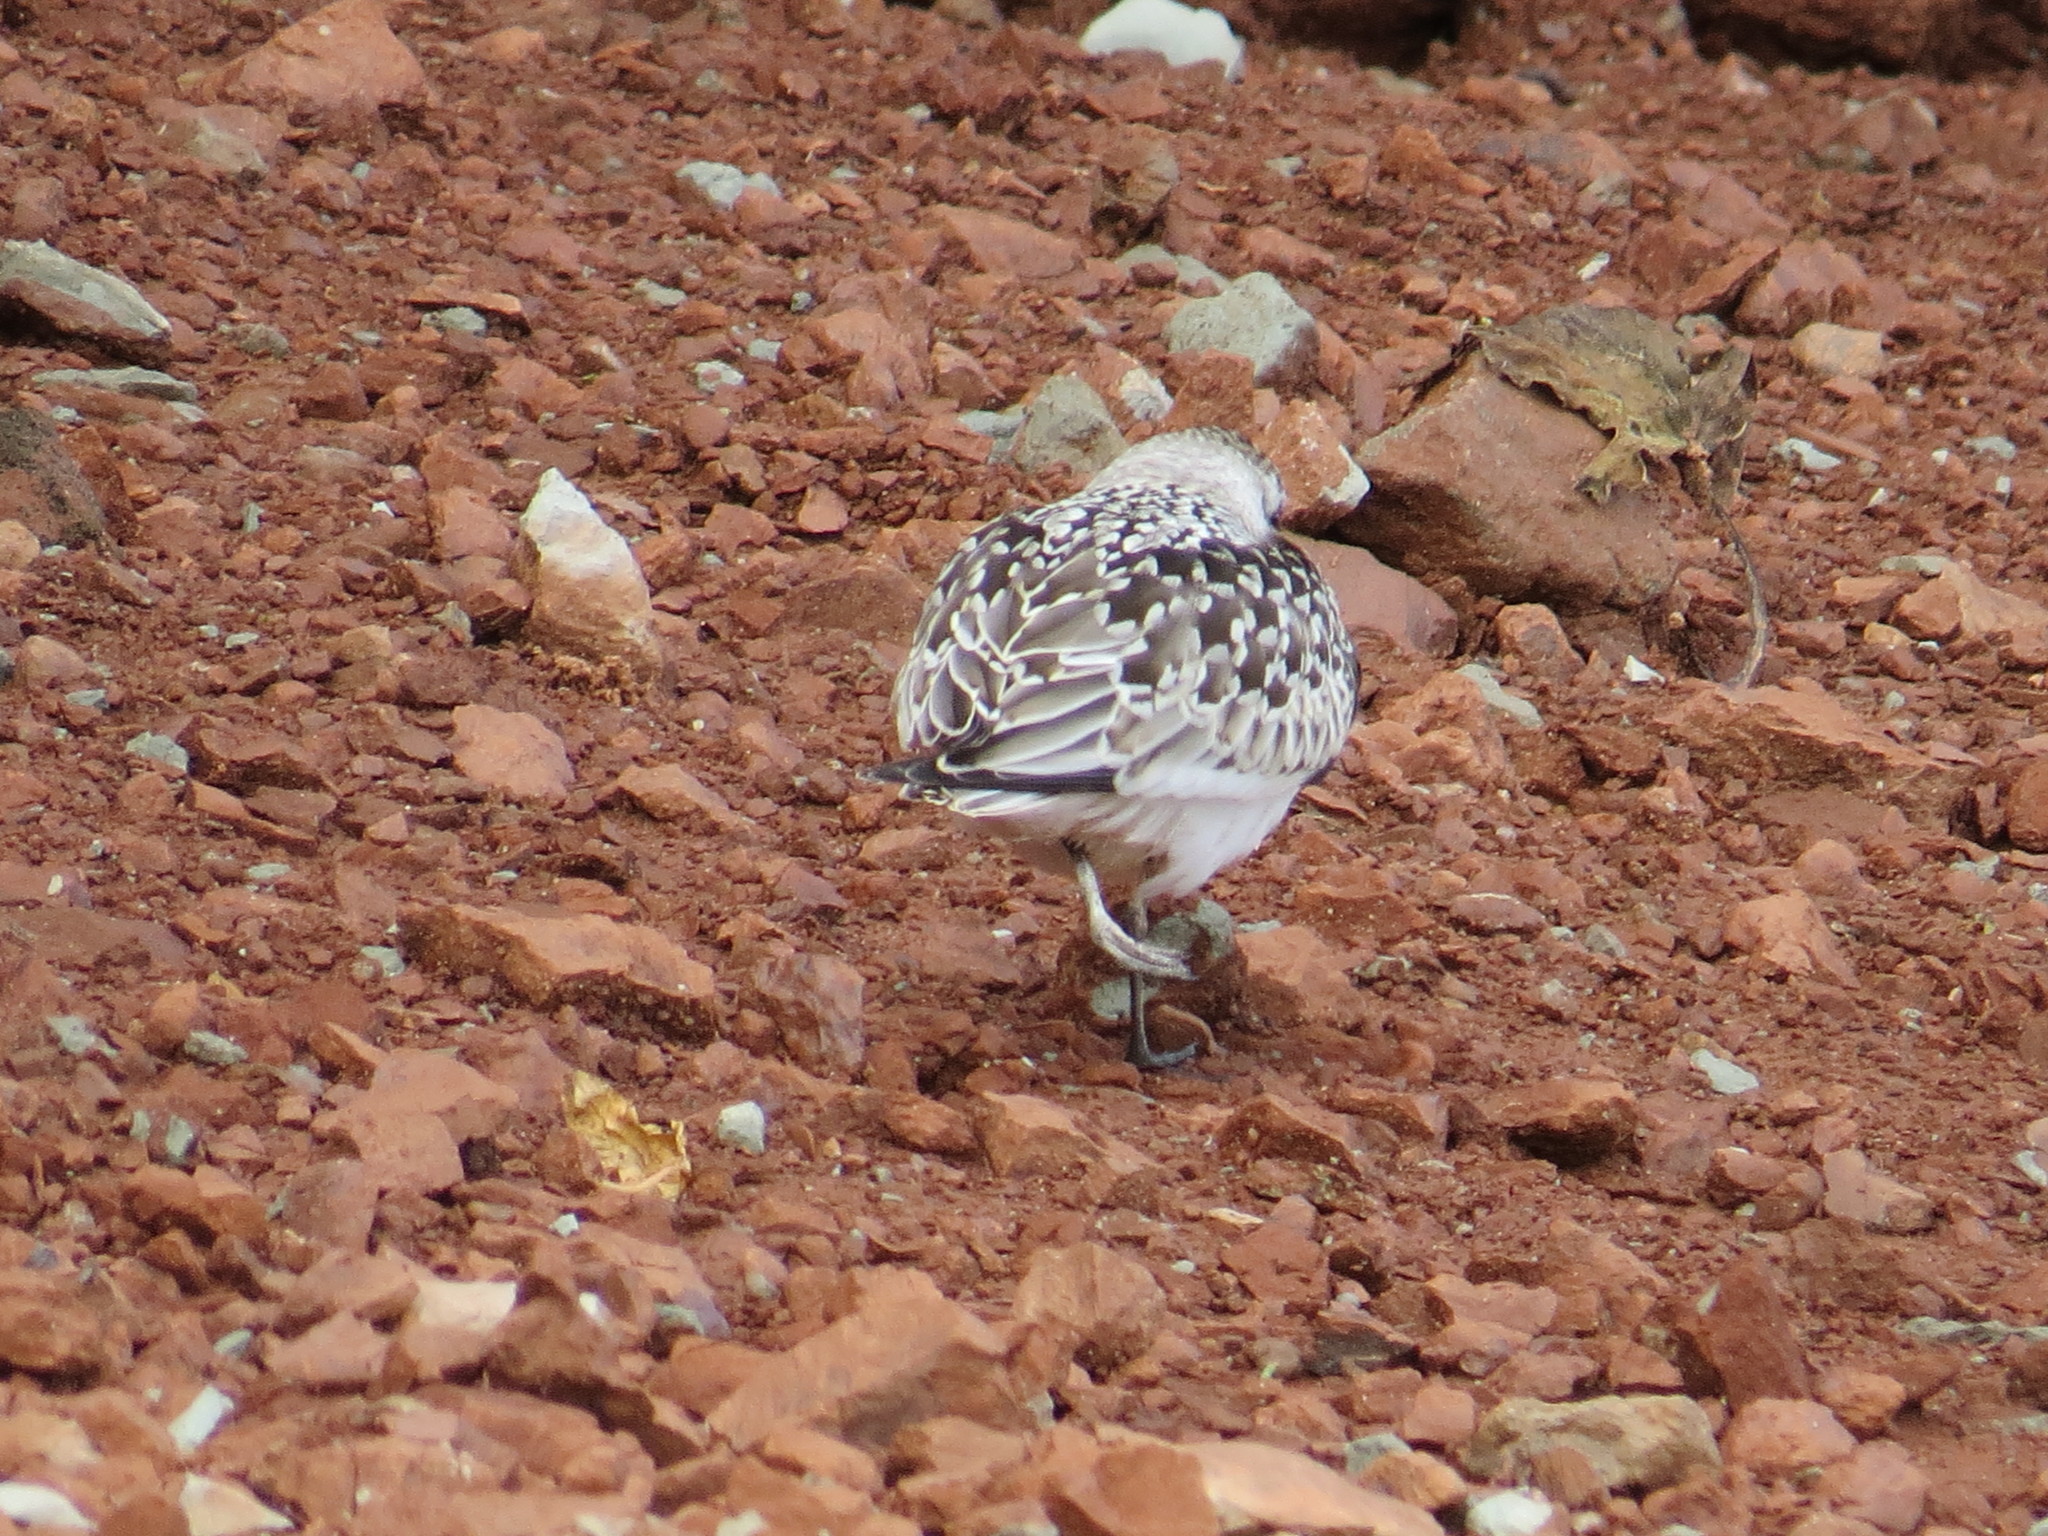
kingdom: Animalia
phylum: Chordata
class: Aves
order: Charadriiformes
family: Scolopacidae
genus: Calidris
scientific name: Calidris alba
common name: Sanderling
